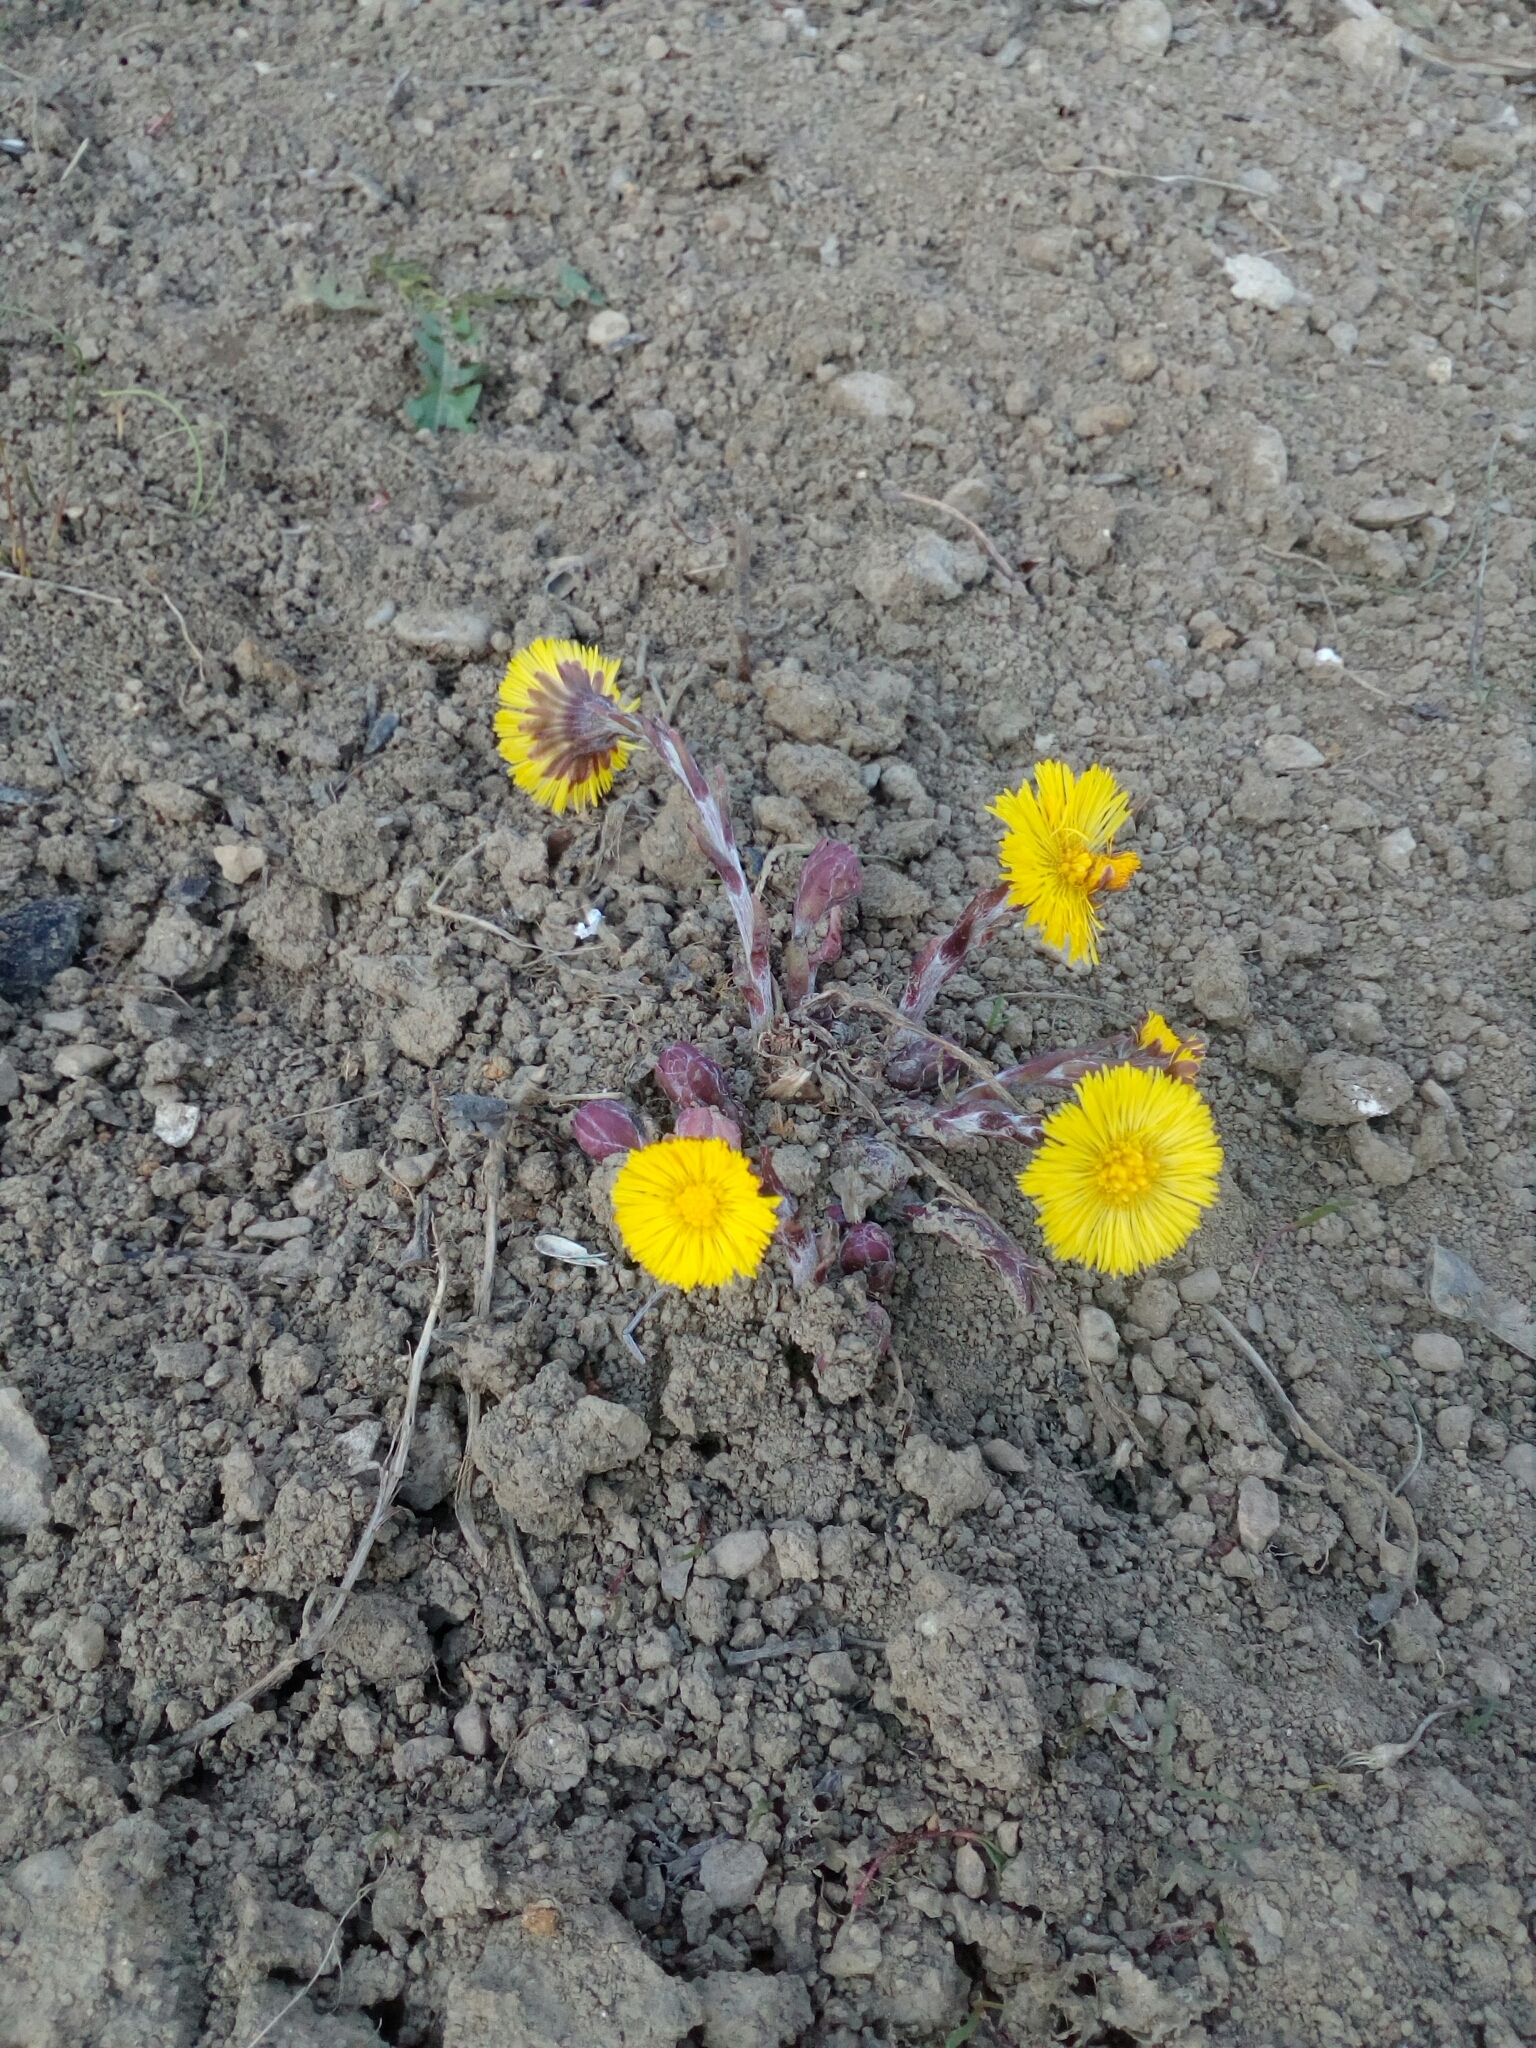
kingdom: Plantae
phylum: Tracheophyta
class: Magnoliopsida
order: Asterales
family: Asteraceae
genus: Tussilago
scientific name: Tussilago farfara
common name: Coltsfoot
